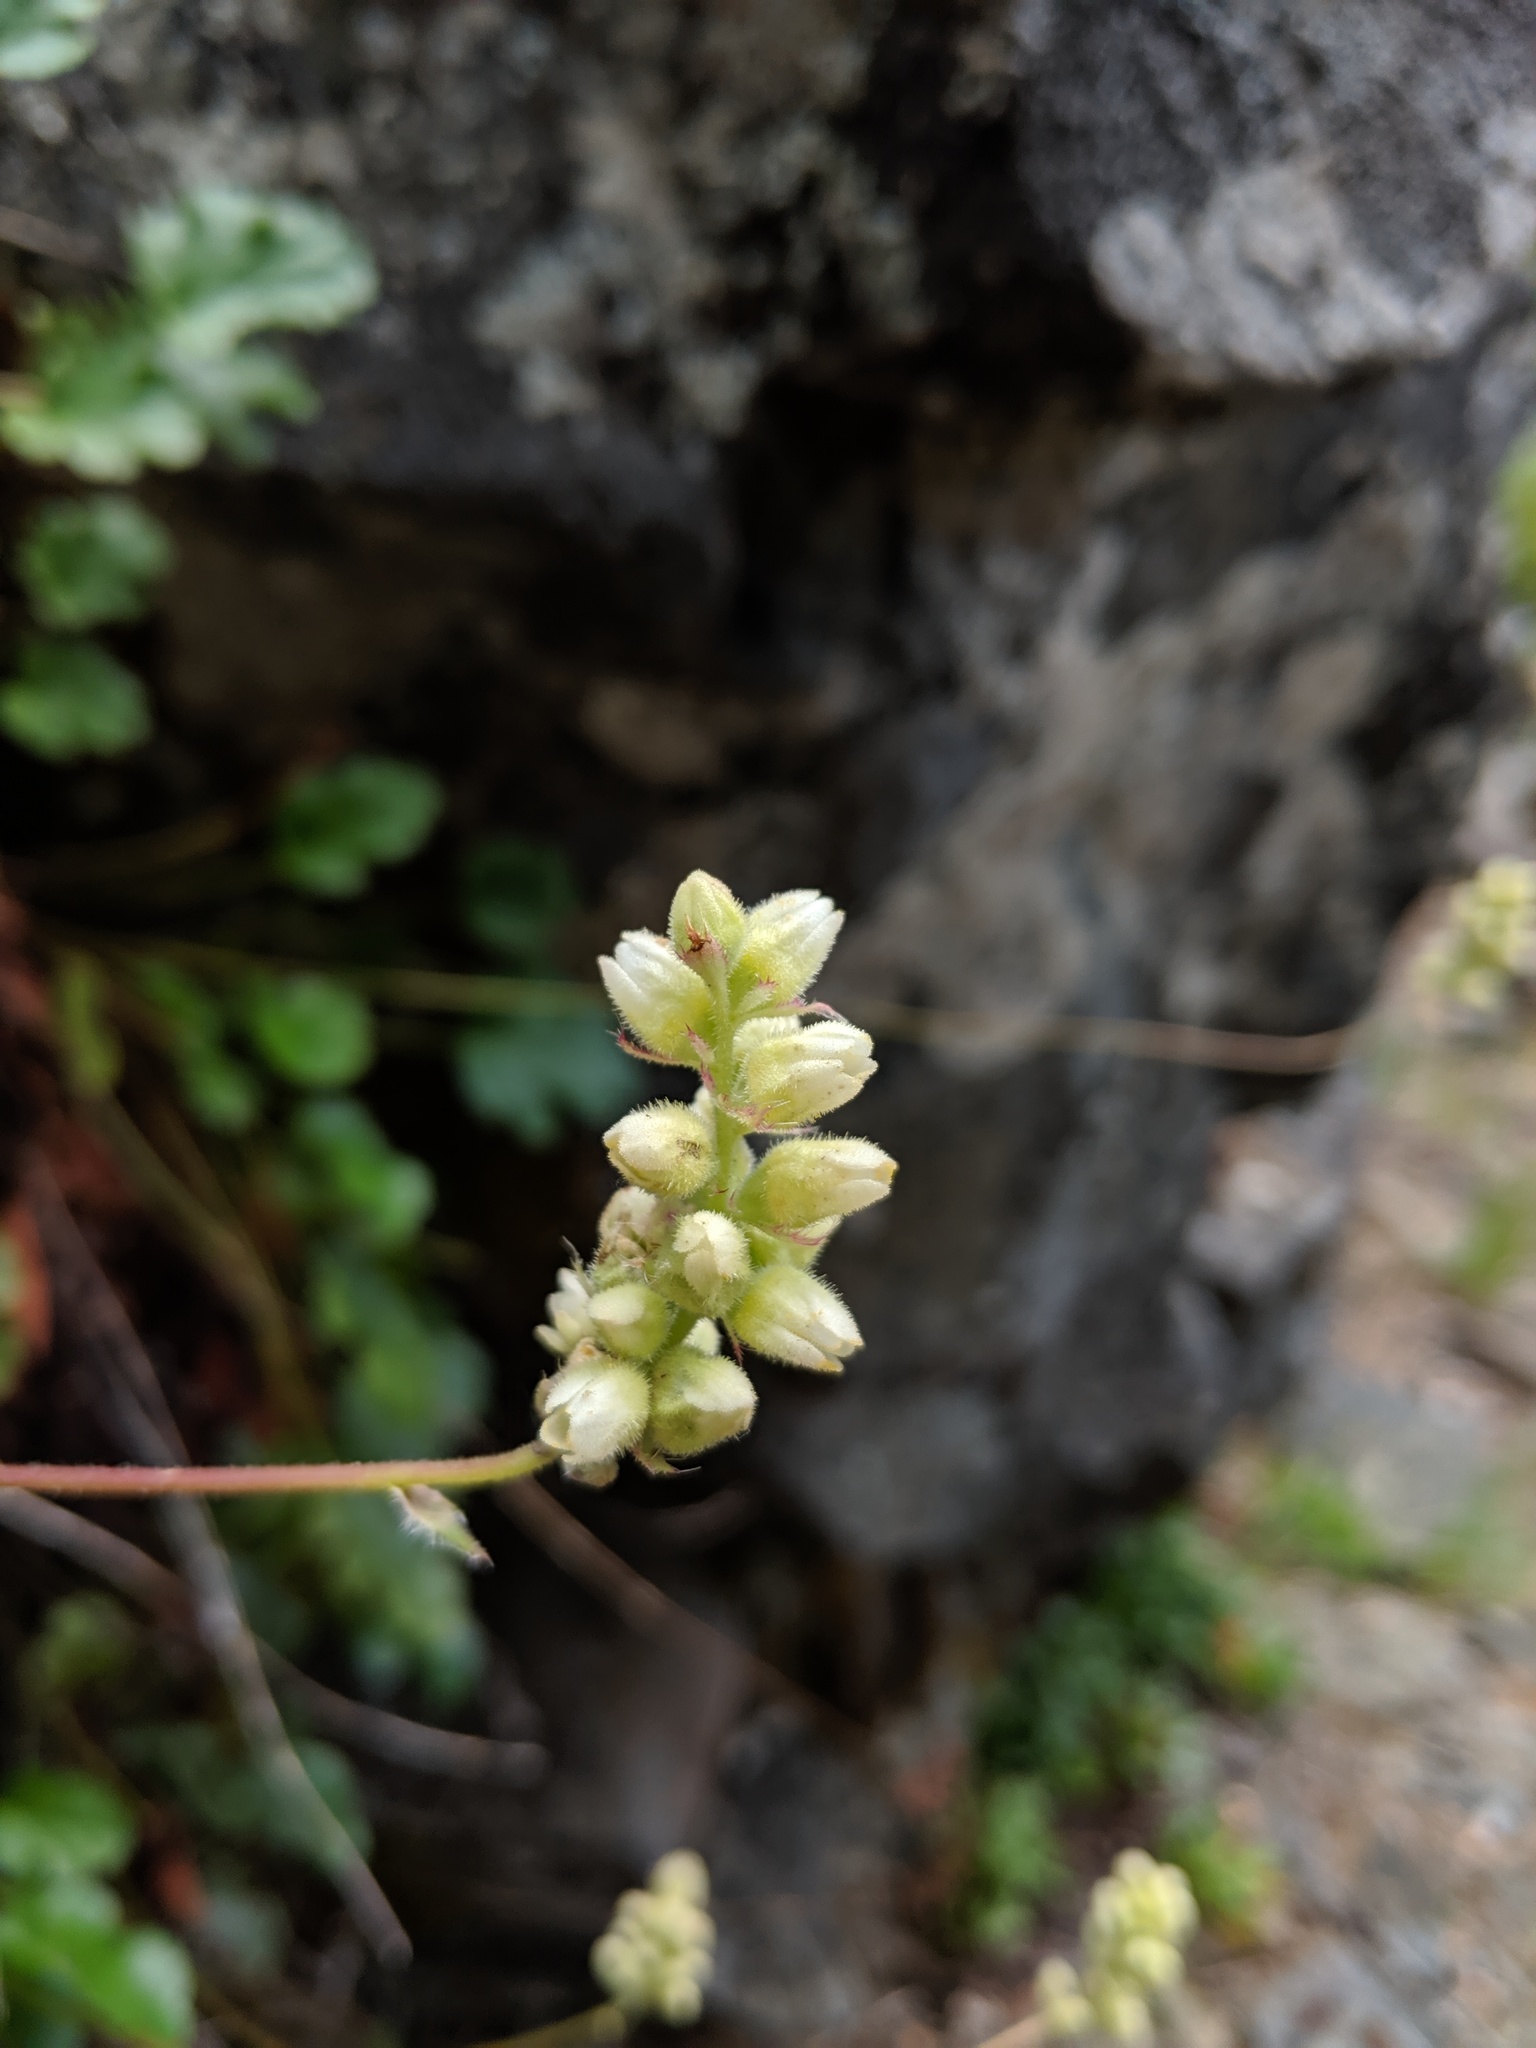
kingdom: Plantae
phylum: Tracheophyta
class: Magnoliopsida
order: Saxifragales
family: Saxifragaceae
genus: Heuchera
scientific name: Heuchera cylindrica
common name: Mat alumroot
